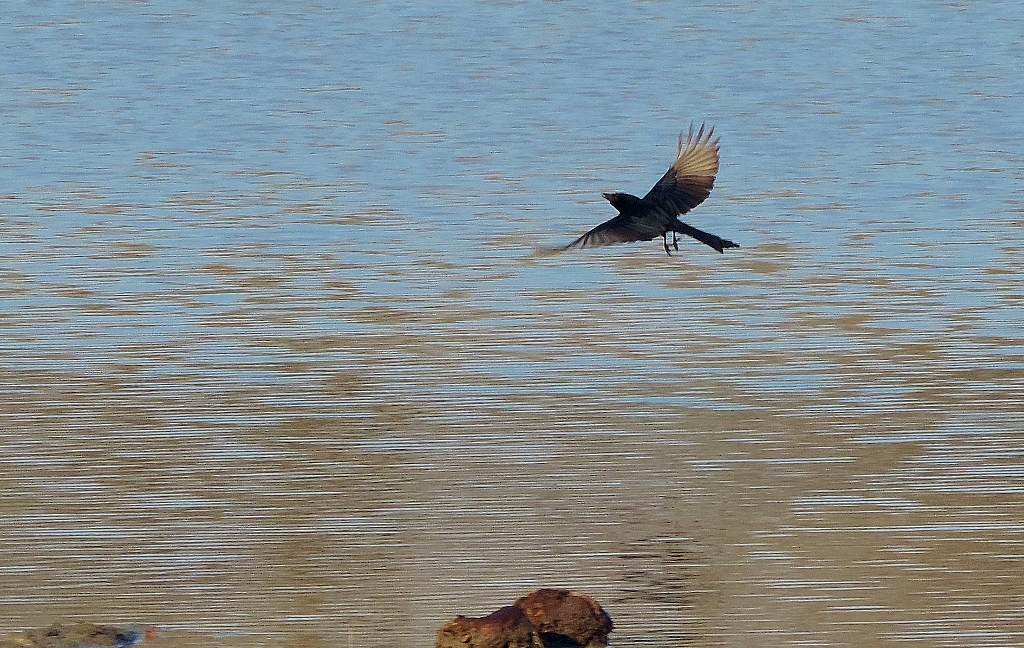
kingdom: Animalia
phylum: Chordata
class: Aves
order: Passeriformes
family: Dicruridae
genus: Dicrurus
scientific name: Dicrurus adsimilis
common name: Fork-tailed drongo
